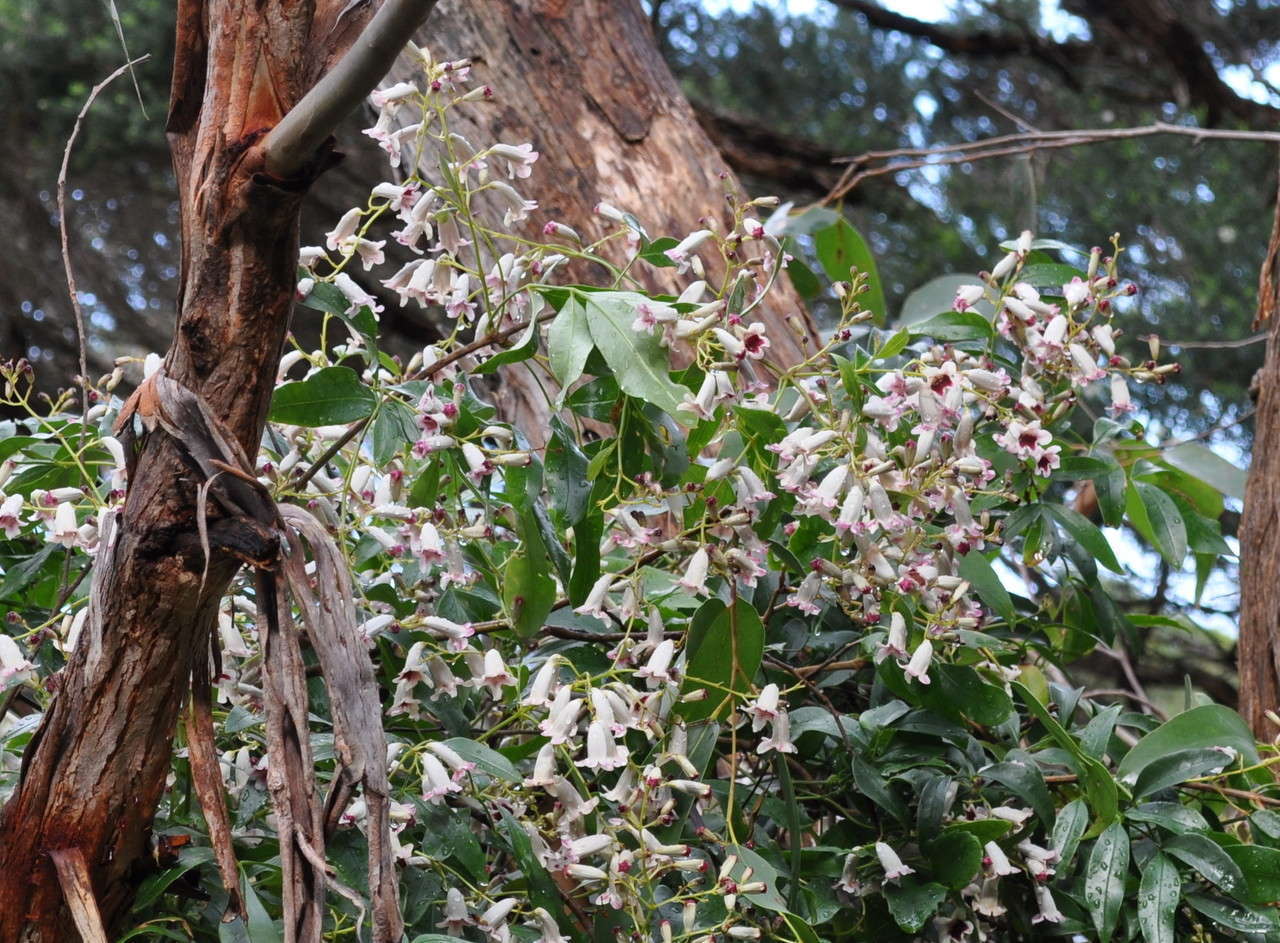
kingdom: Plantae
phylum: Tracheophyta
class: Magnoliopsida
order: Lamiales
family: Bignoniaceae
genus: Pandorea
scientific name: Pandorea pandorana
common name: Wonga-wonga-vine
